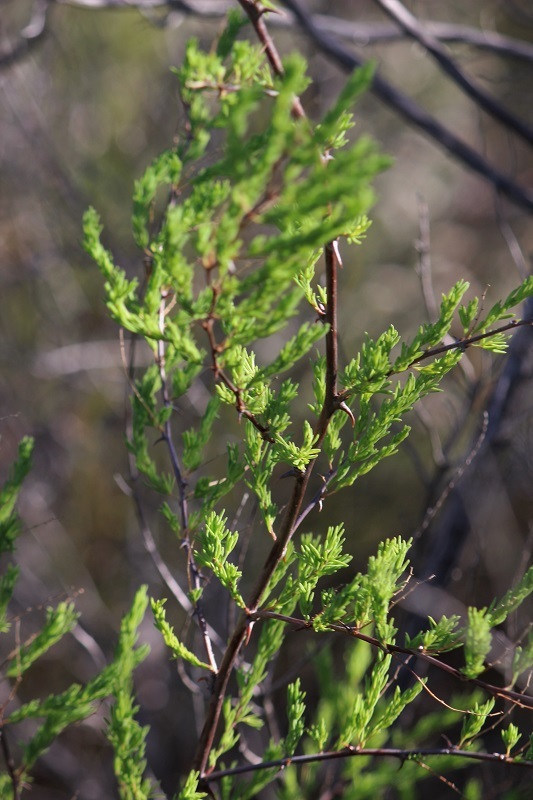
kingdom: Plantae
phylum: Tracheophyta
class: Liliopsida
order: Asparagales
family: Asparagaceae
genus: Asparagus
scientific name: Asparagus rubicundus
